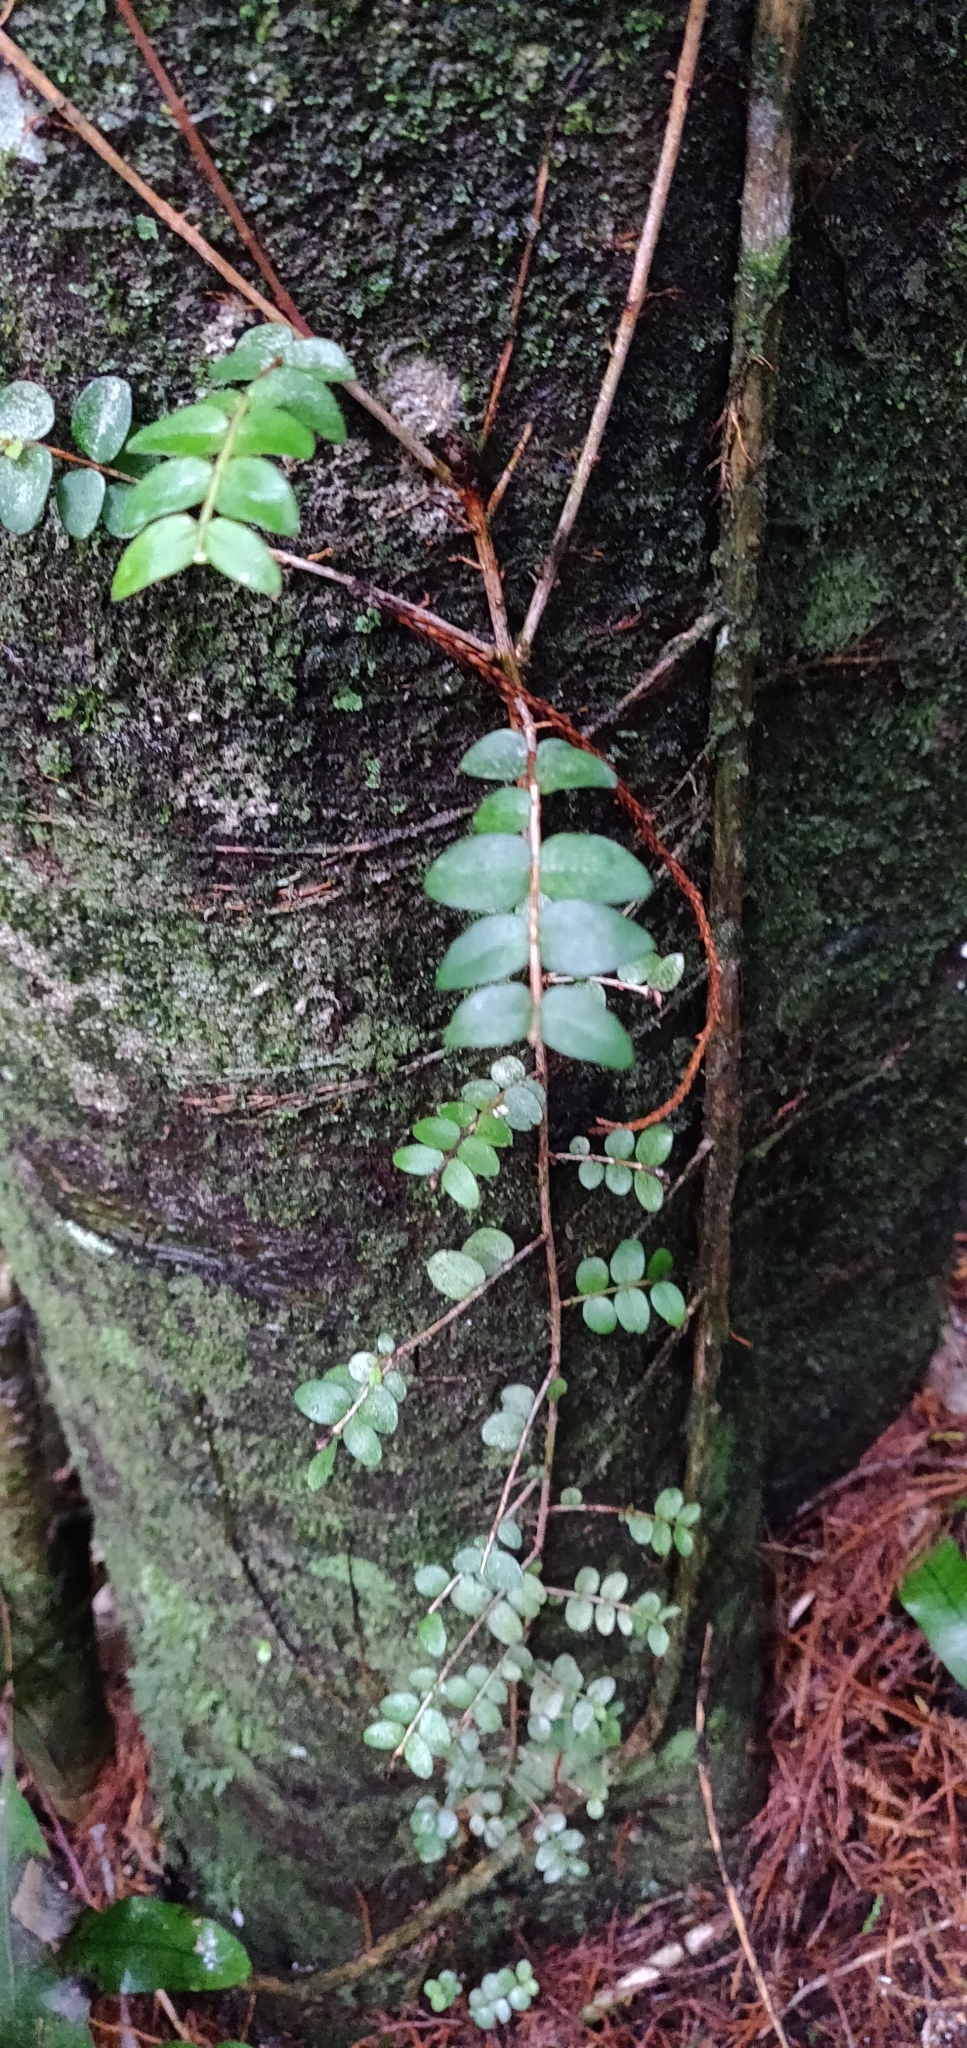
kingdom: Plantae
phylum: Tracheophyta
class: Magnoliopsida
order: Myrtales
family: Myrtaceae
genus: Metrosideros
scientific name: Metrosideros diffusa
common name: Small ratavine
